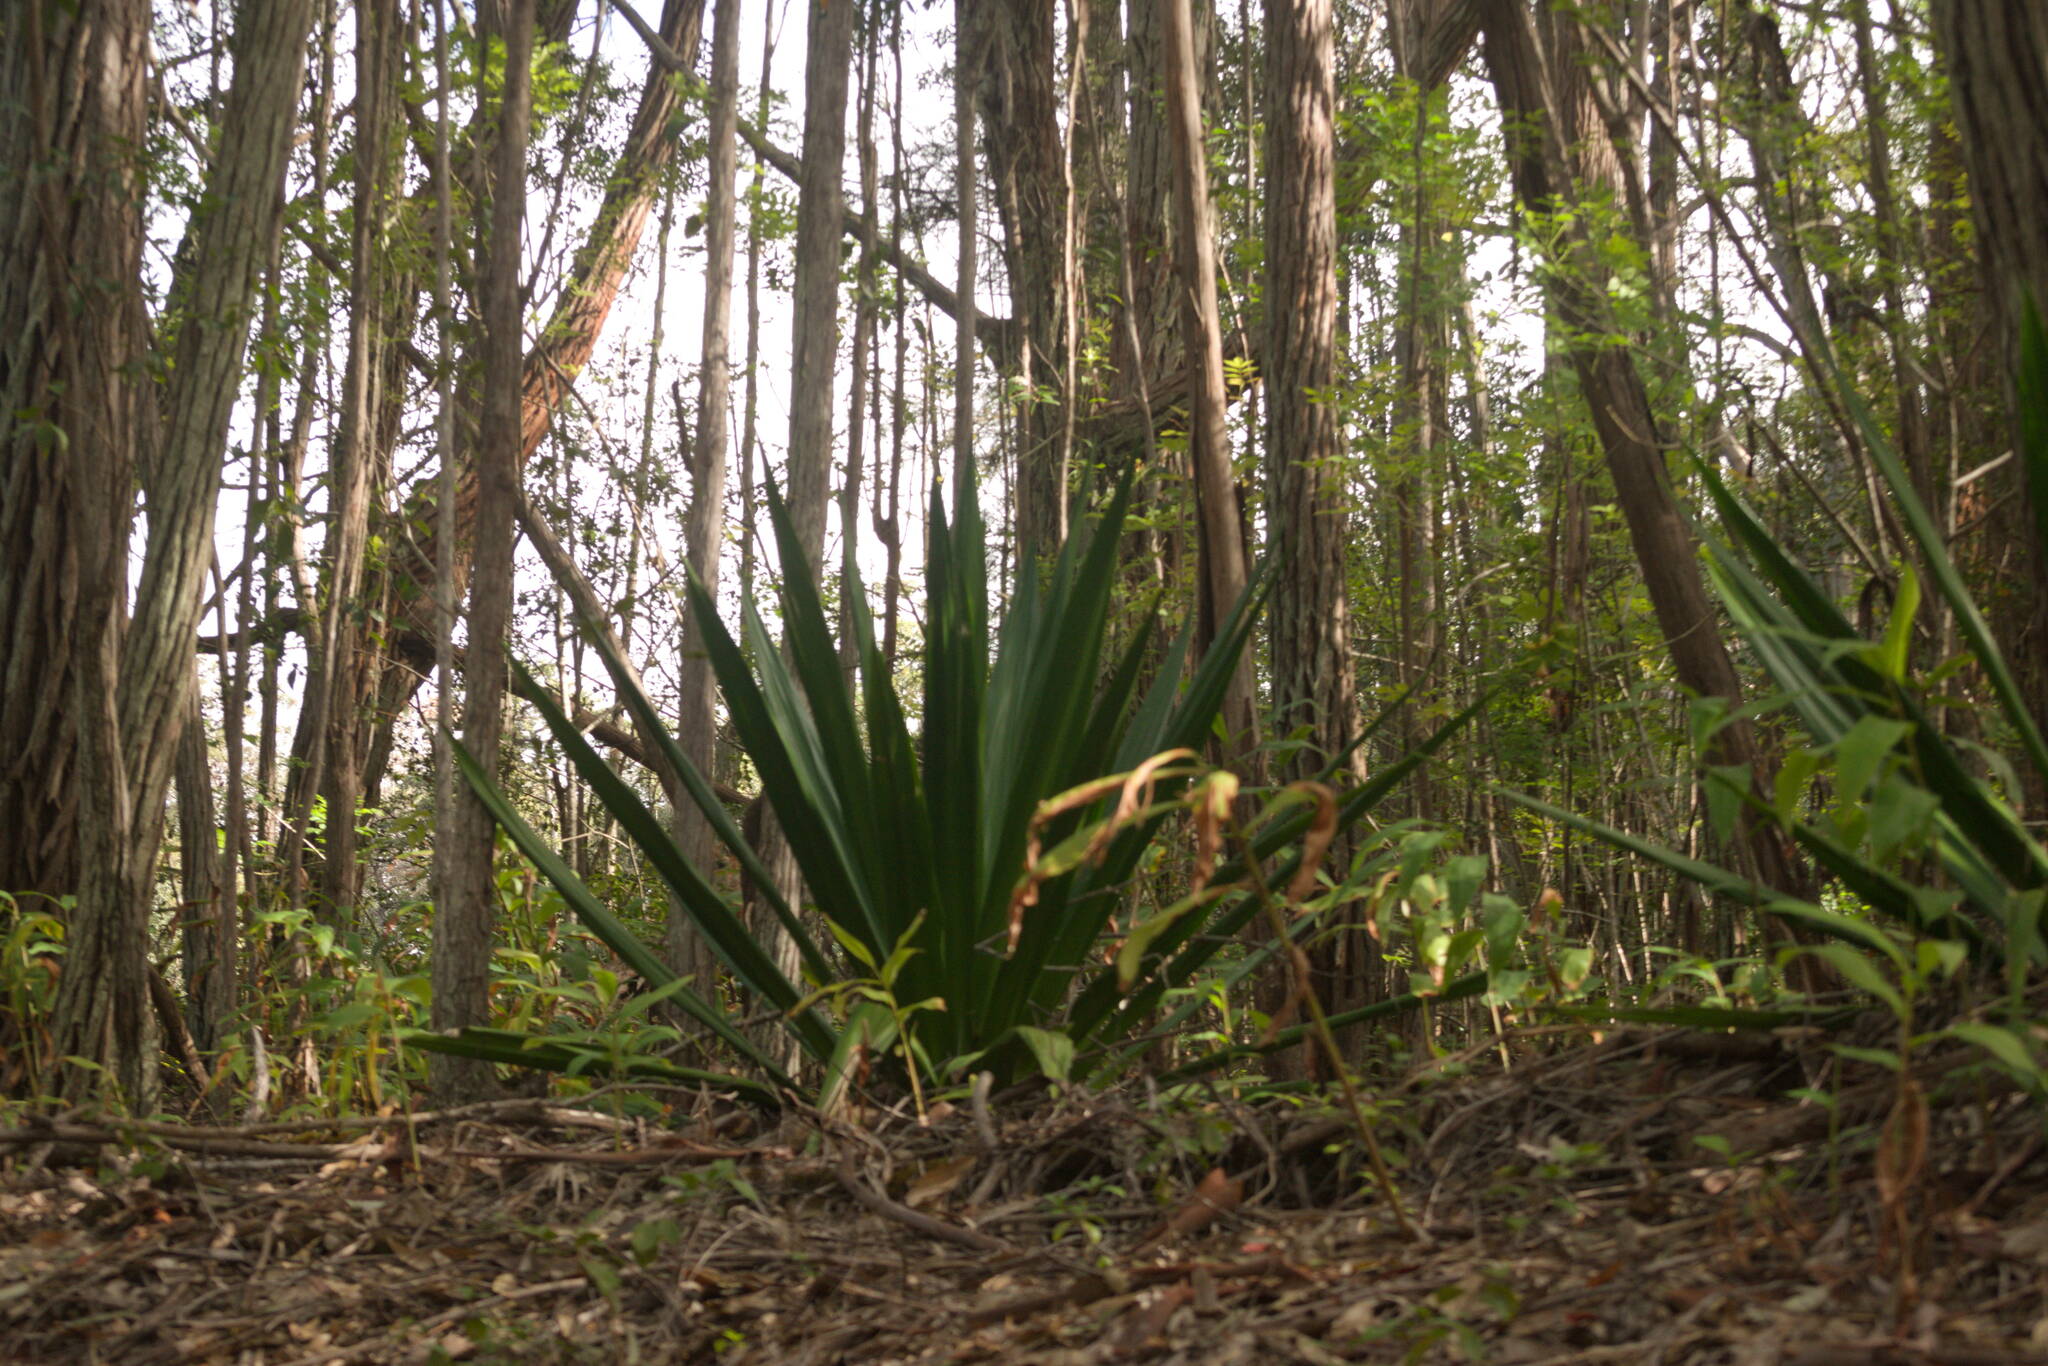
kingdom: Plantae
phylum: Tracheophyta
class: Liliopsida
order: Asparagales
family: Asparagaceae
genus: Furcraea
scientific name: Furcraea foetida
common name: Mauritius hemp
